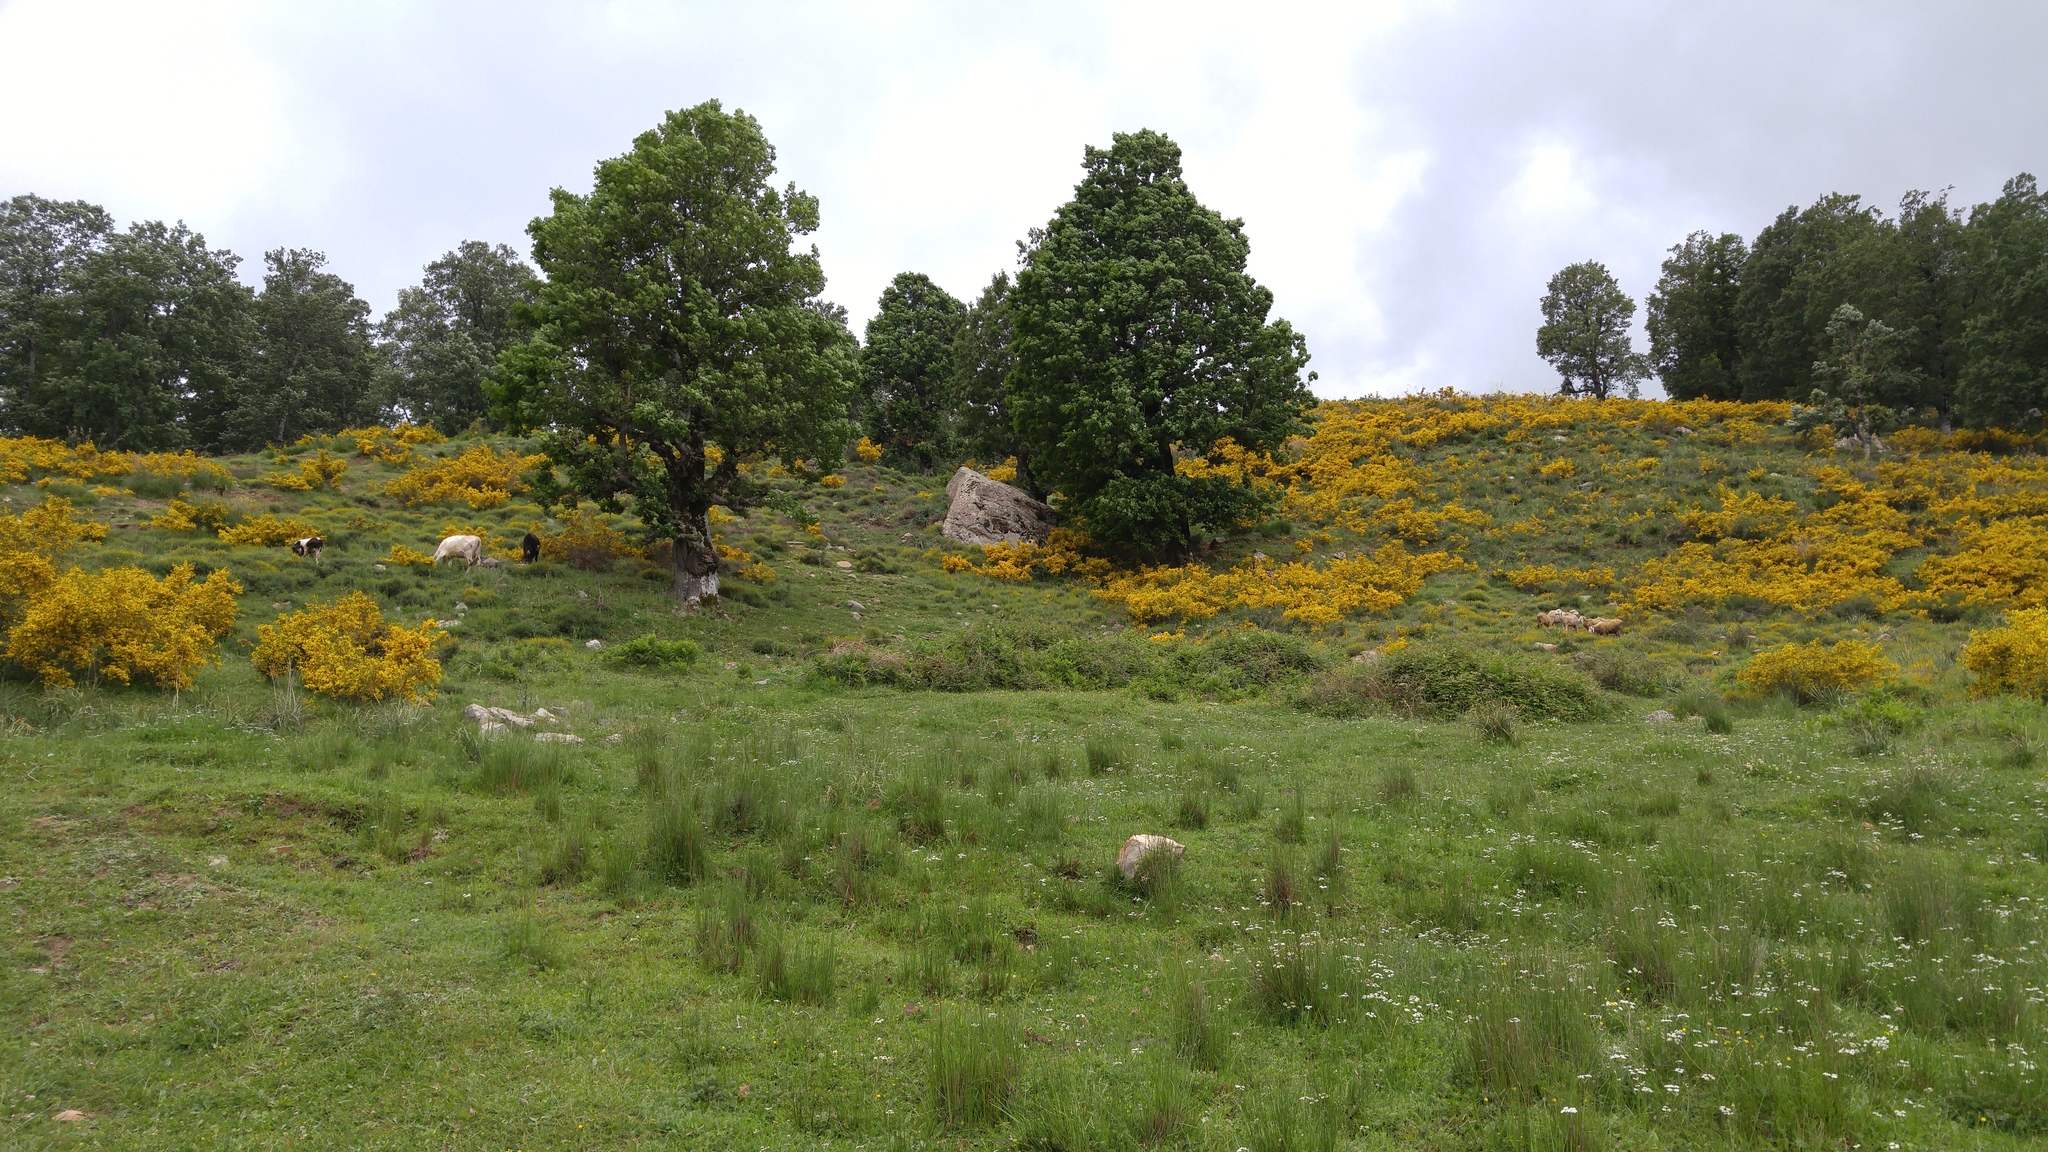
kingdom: Plantae
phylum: Tracheophyta
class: Magnoliopsida
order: Fagales
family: Fagaceae
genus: Quercus
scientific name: Quercus canariensis
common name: Algerian oak
